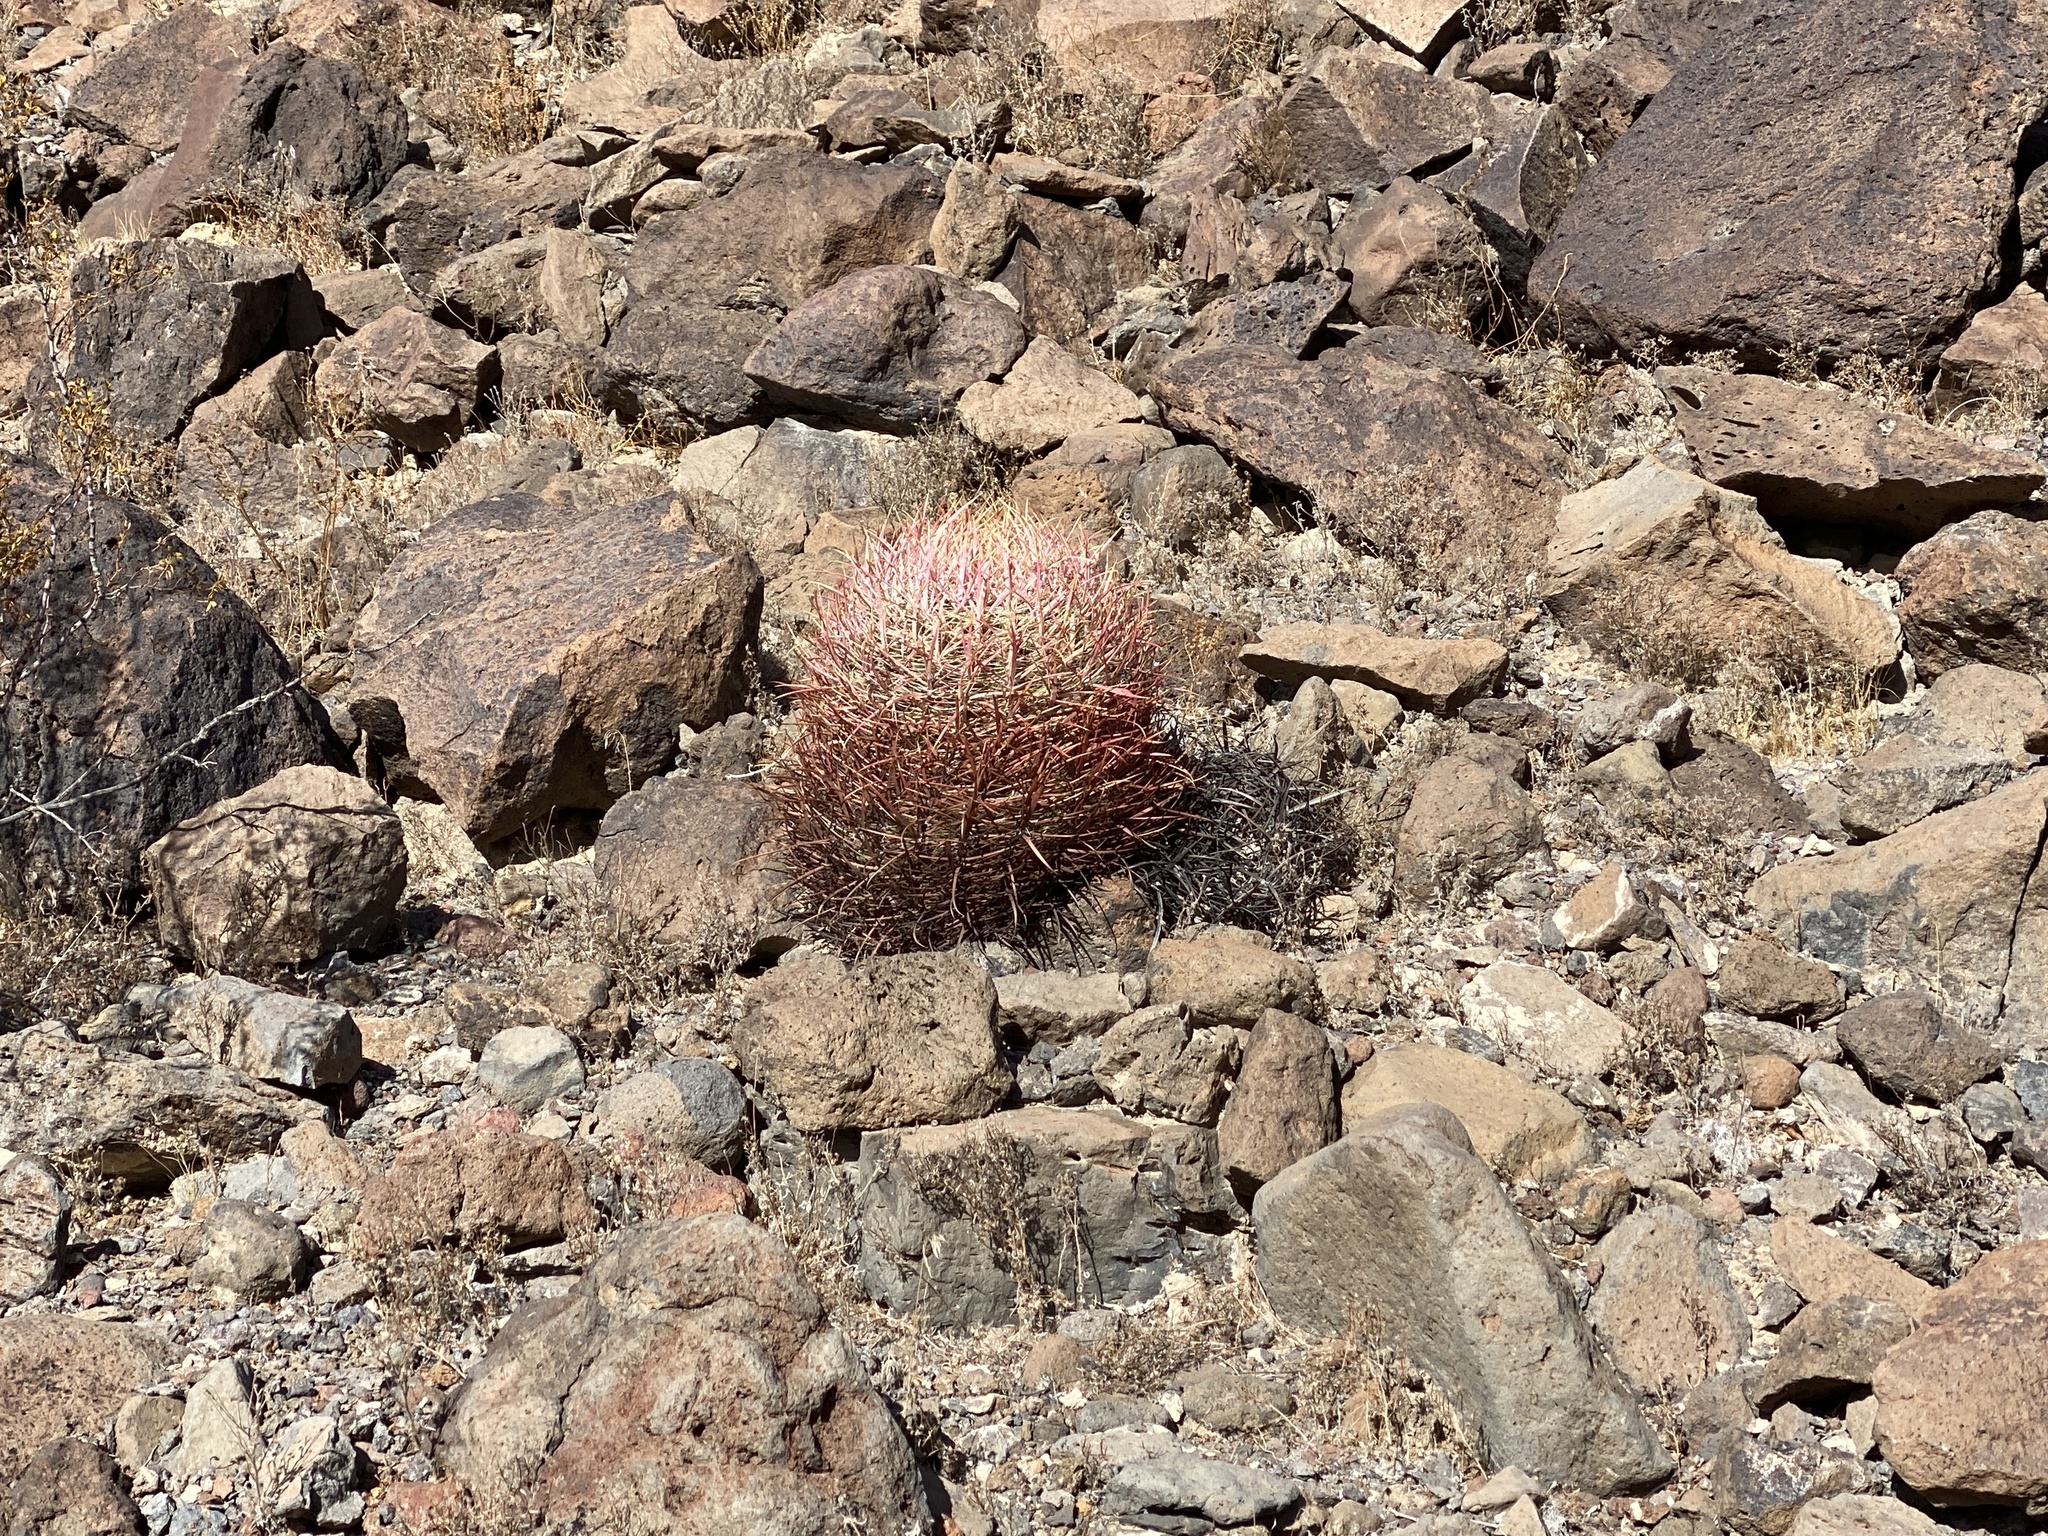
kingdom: Plantae
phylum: Tracheophyta
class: Magnoliopsida
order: Caryophyllales
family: Cactaceae
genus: Ferocactus
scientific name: Ferocactus cylindraceus
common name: California barrel cactus
